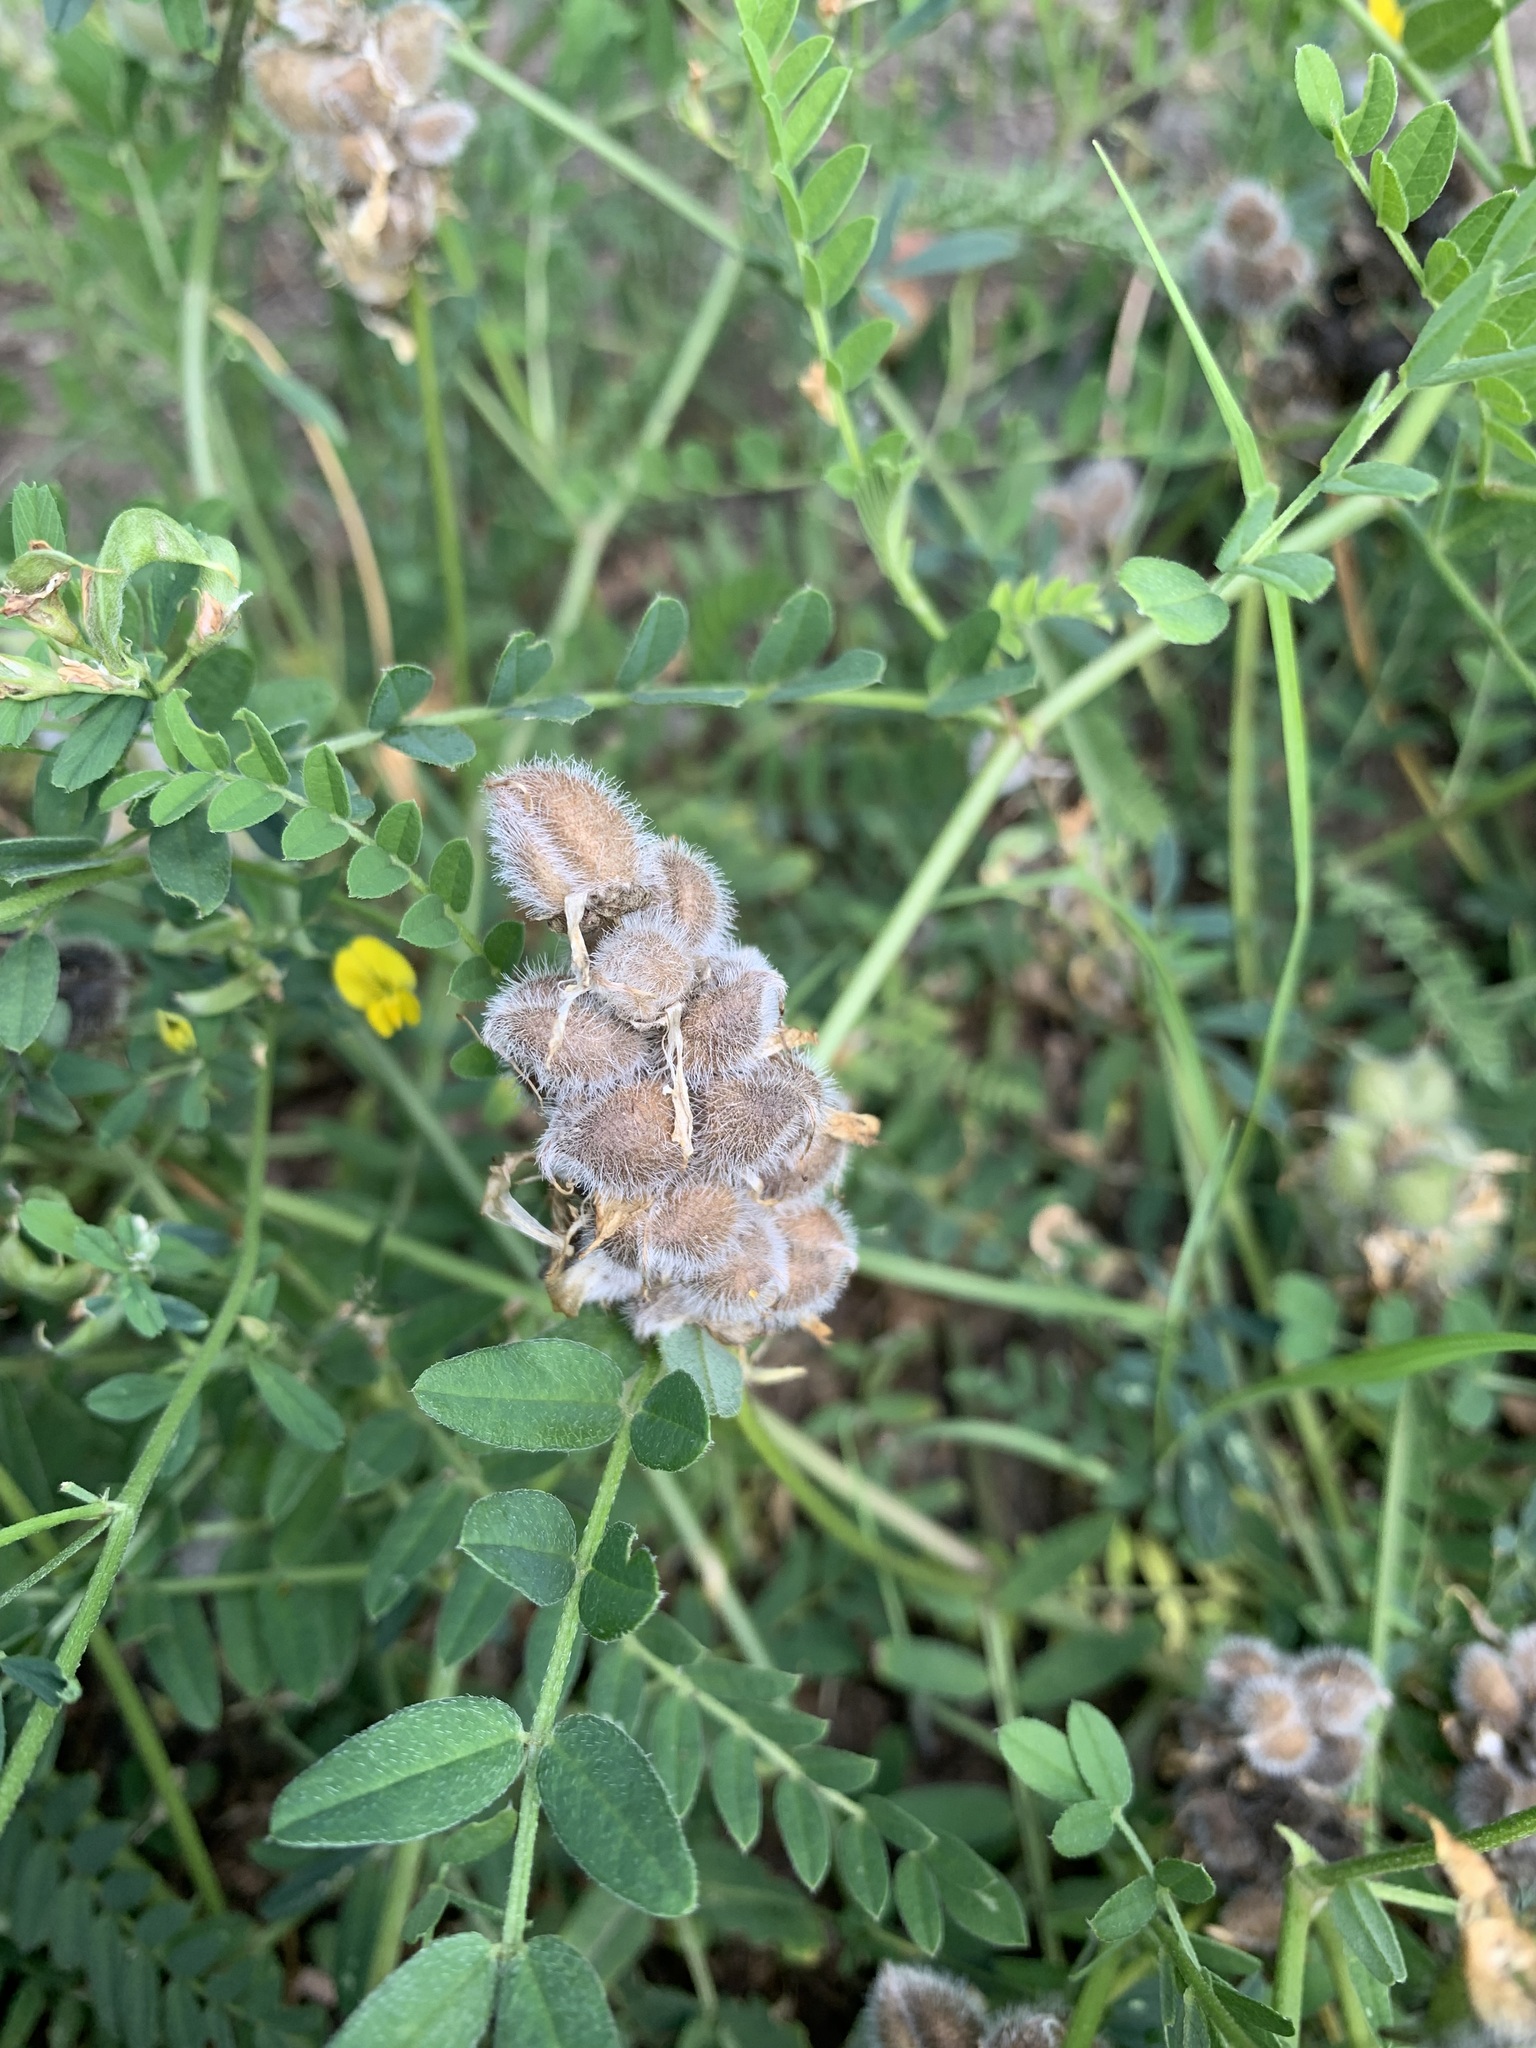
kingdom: Plantae
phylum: Tracheophyta
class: Magnoliopsida
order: Fabales
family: Fabaceae
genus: Astragalus
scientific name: Astragalus cicer
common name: Chick-pea milk-vetch
